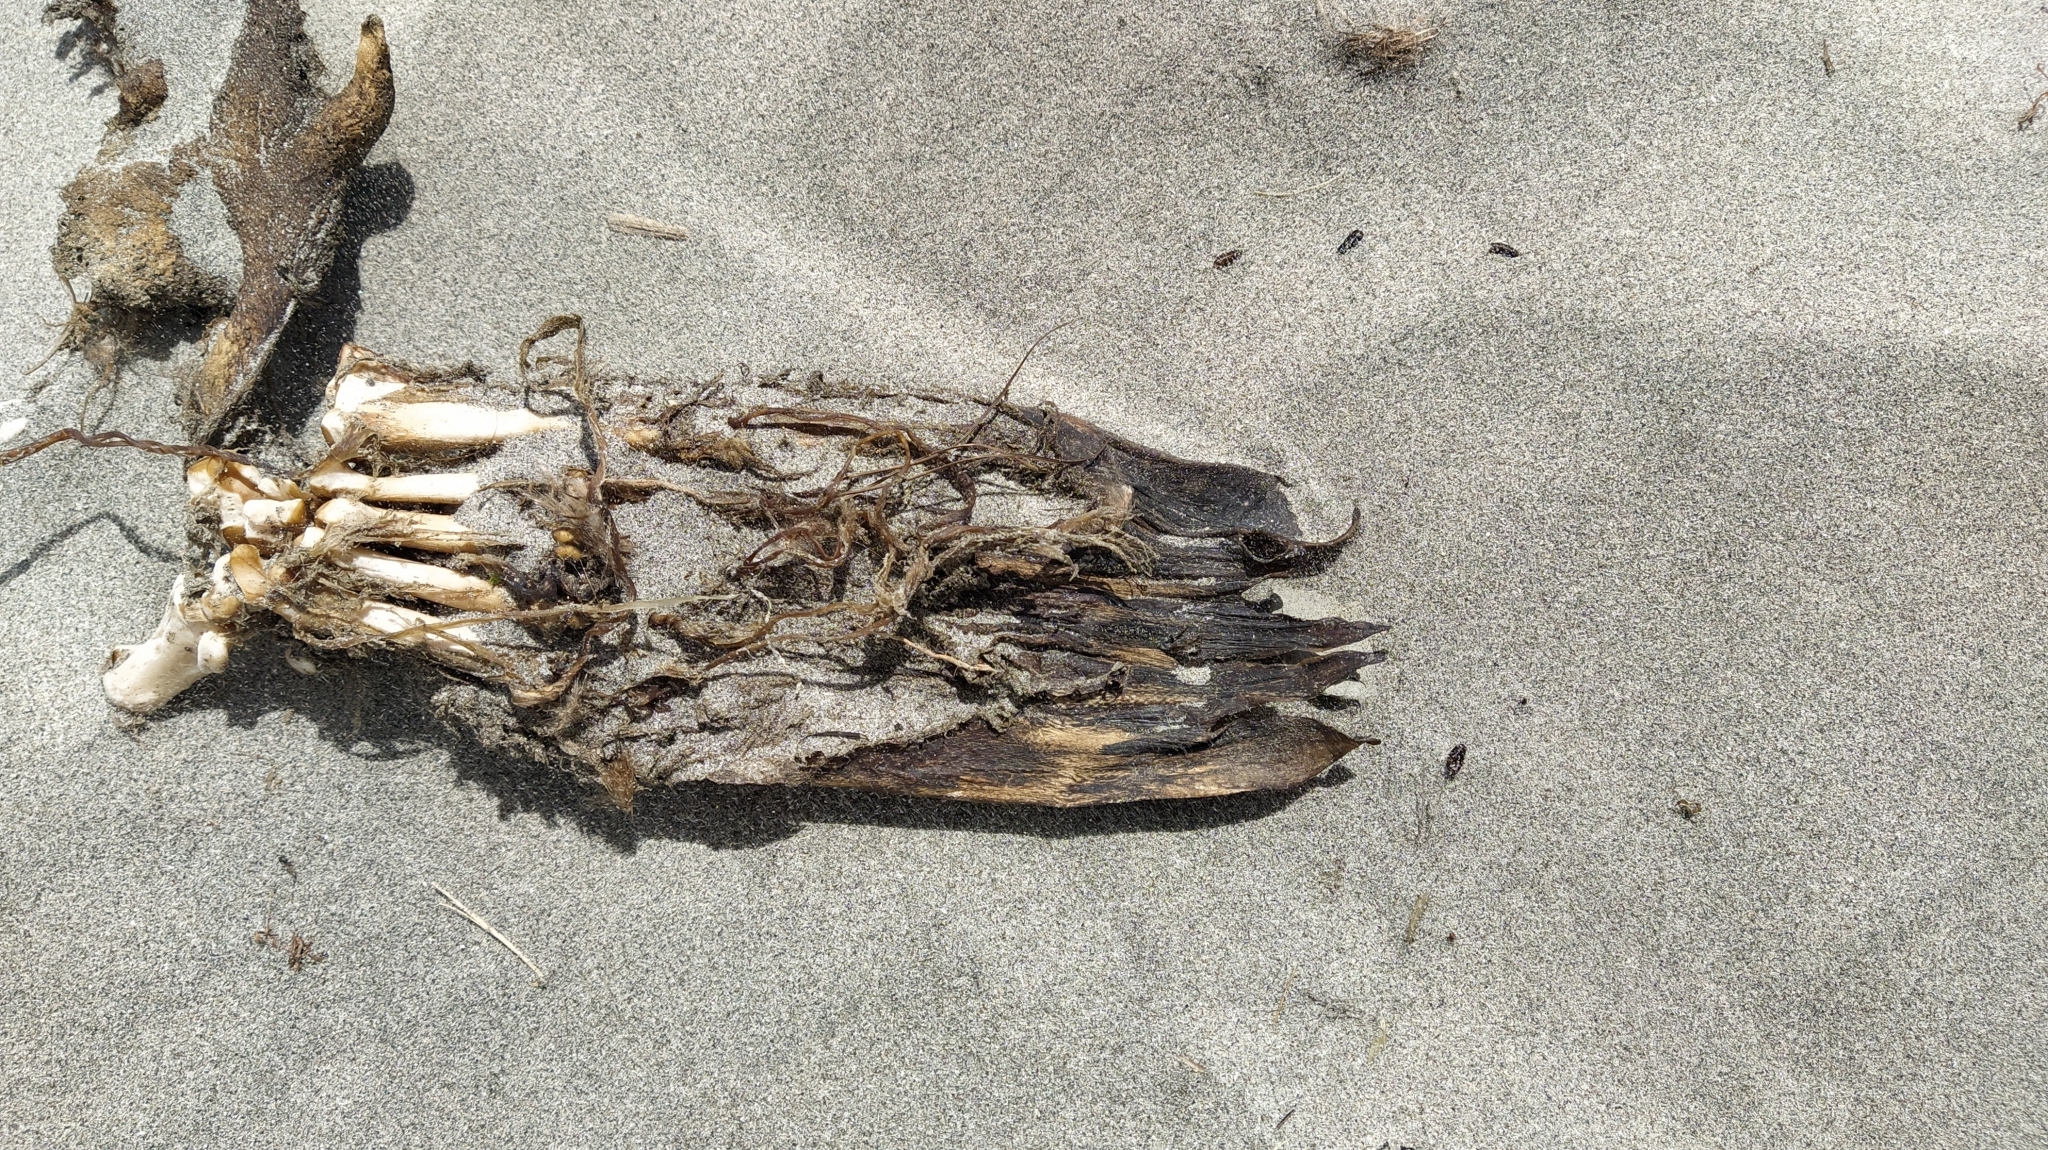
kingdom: Animalia
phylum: Chordata
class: Mammalia
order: Carnivora
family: Otariidae
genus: Arctocephalus
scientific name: Arctocephalus forsteri
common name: New zealand fur seal
